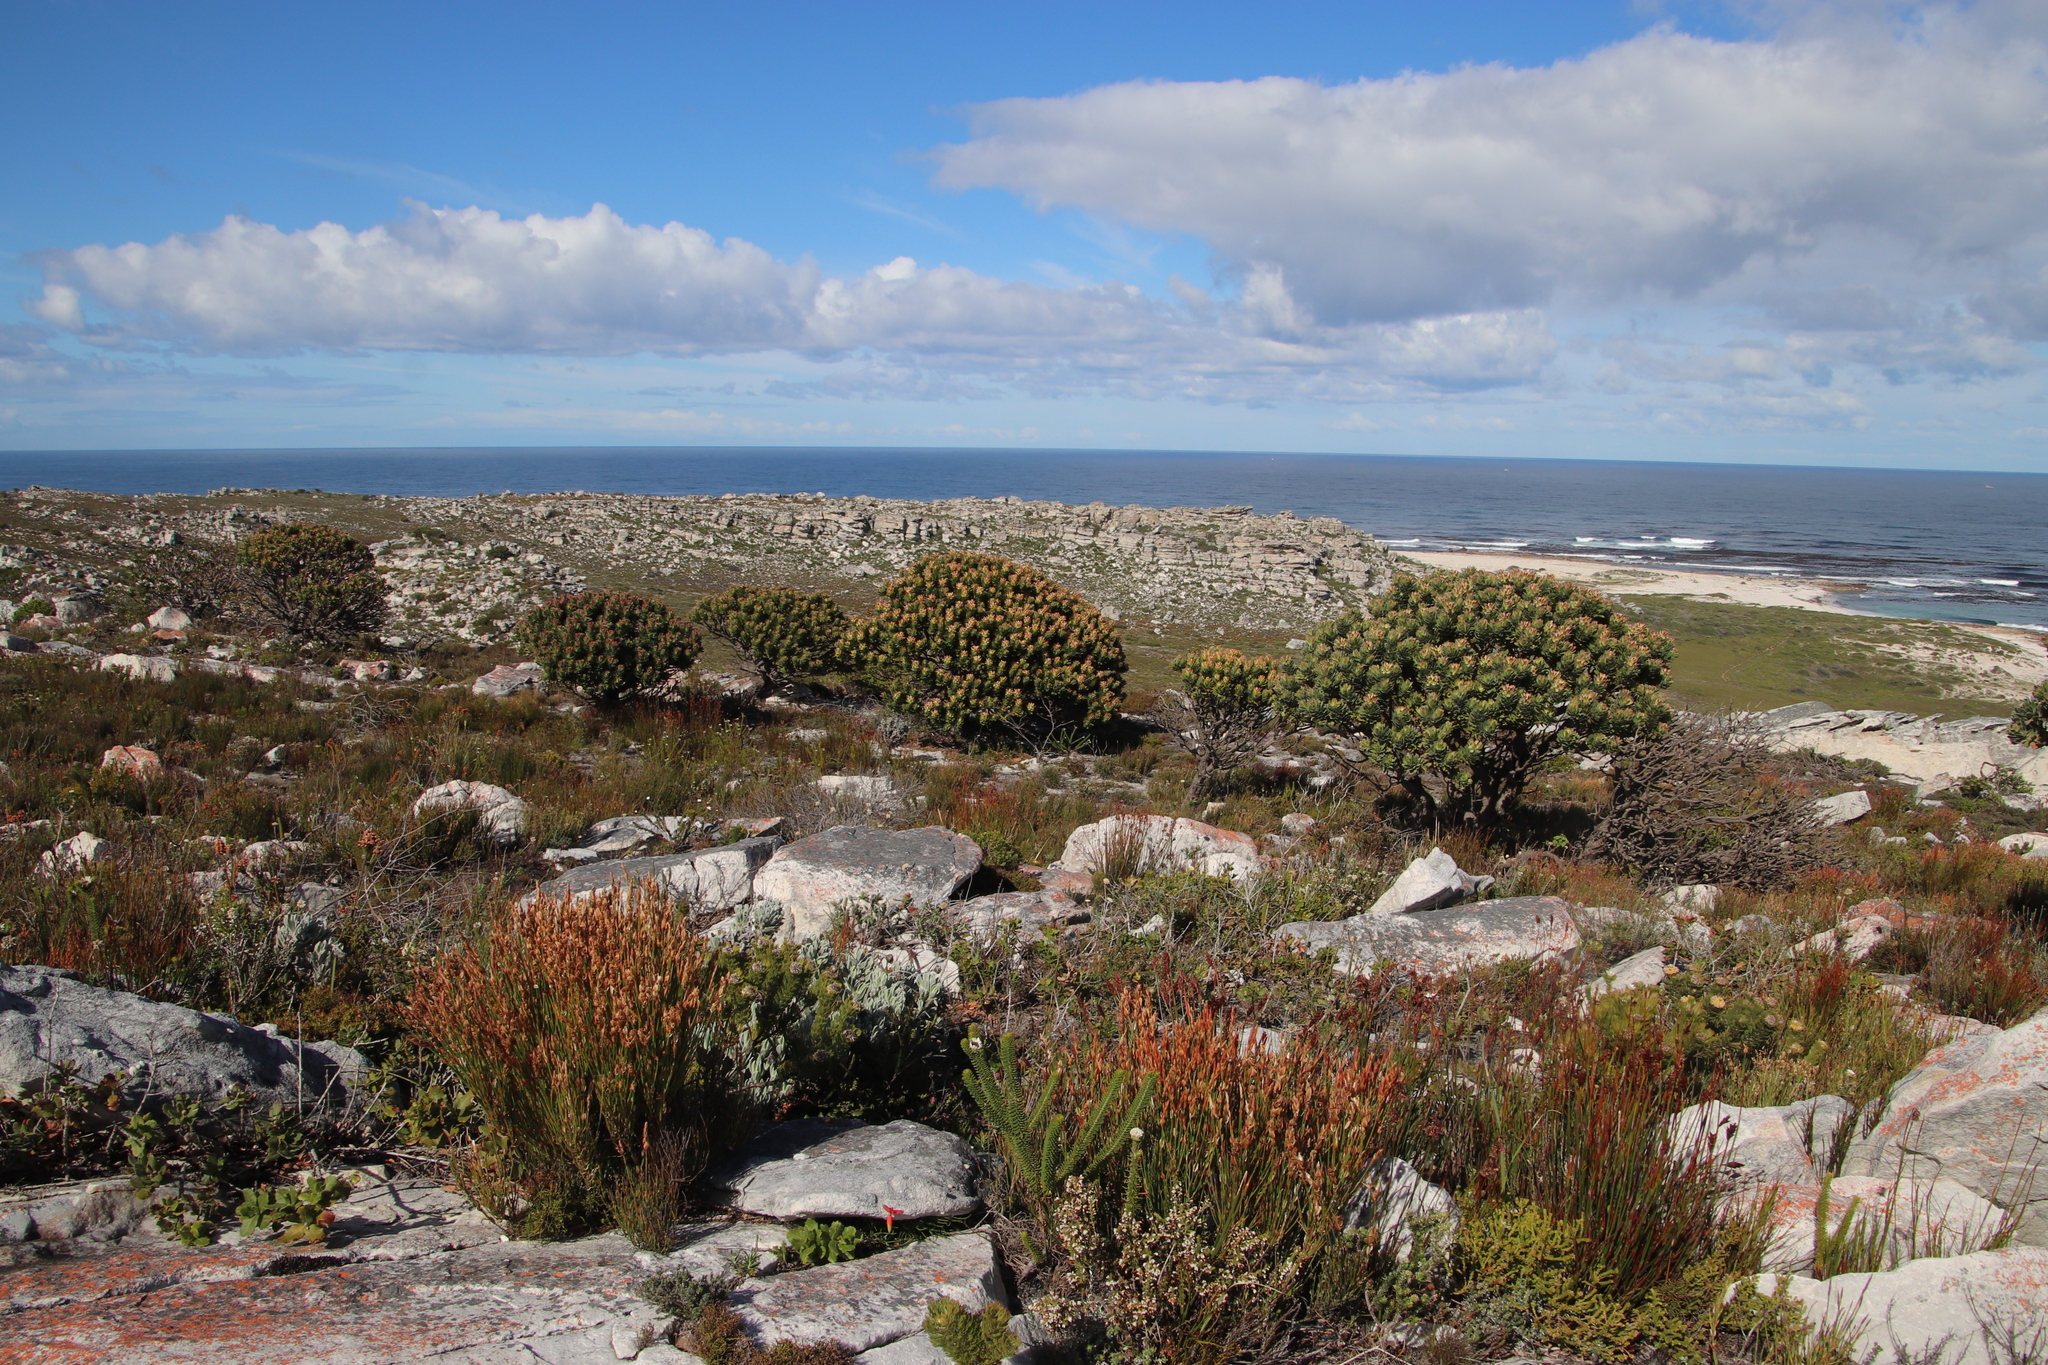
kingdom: Plantae
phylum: Tracheophyta
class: Magnoliopsida
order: Proteales
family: Proteaceae
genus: Mimetes
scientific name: Mimetes fimbriifolius
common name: Fringed bottlebrush
